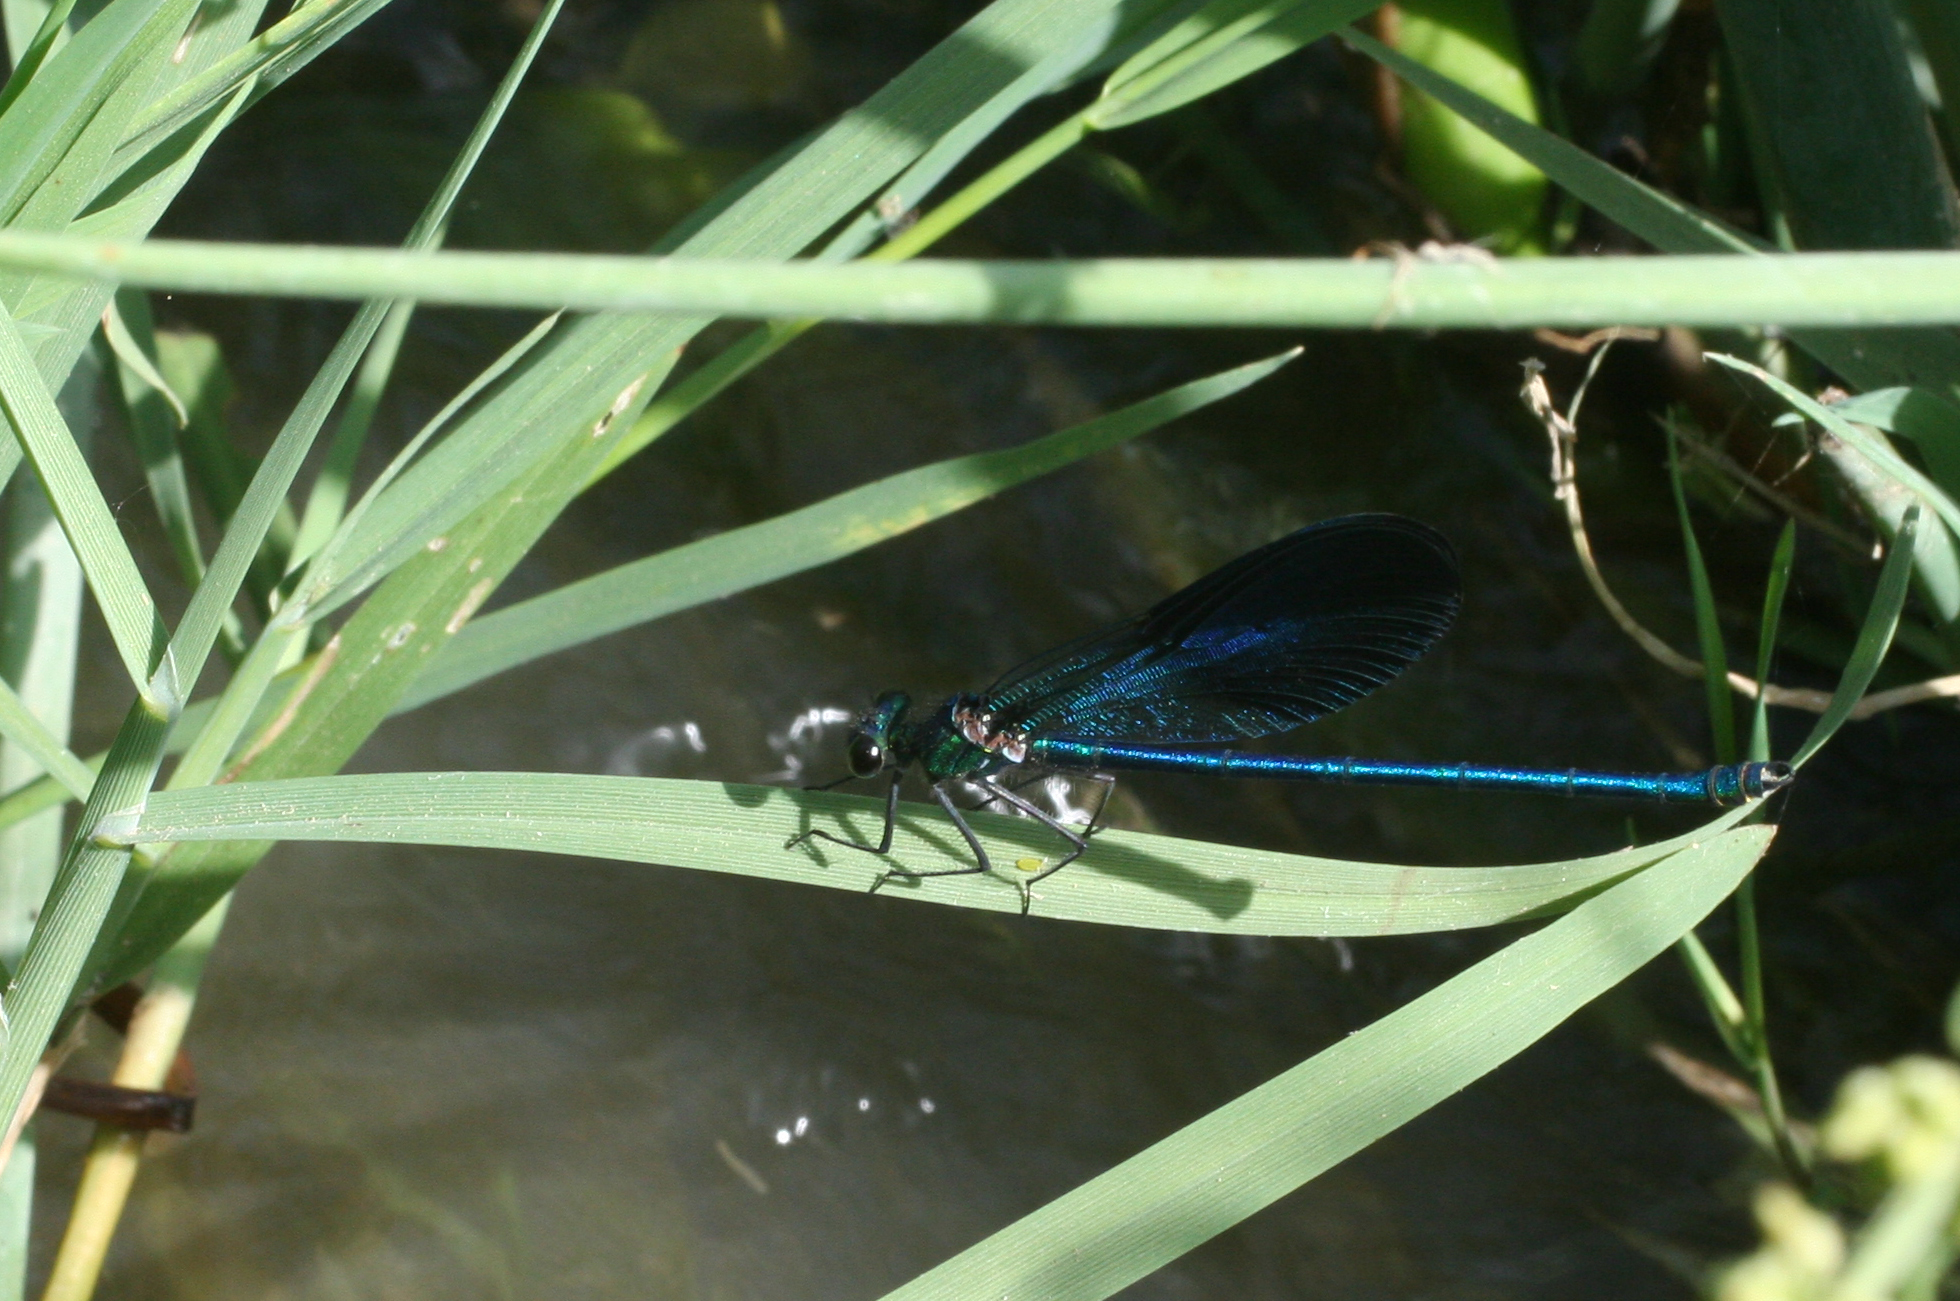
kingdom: Animalia
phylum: Arthropoda
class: Insecta
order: Odonata
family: Calopterygidae
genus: Calopteryx
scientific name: Calopteryx splendens
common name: Banded demoiselle
